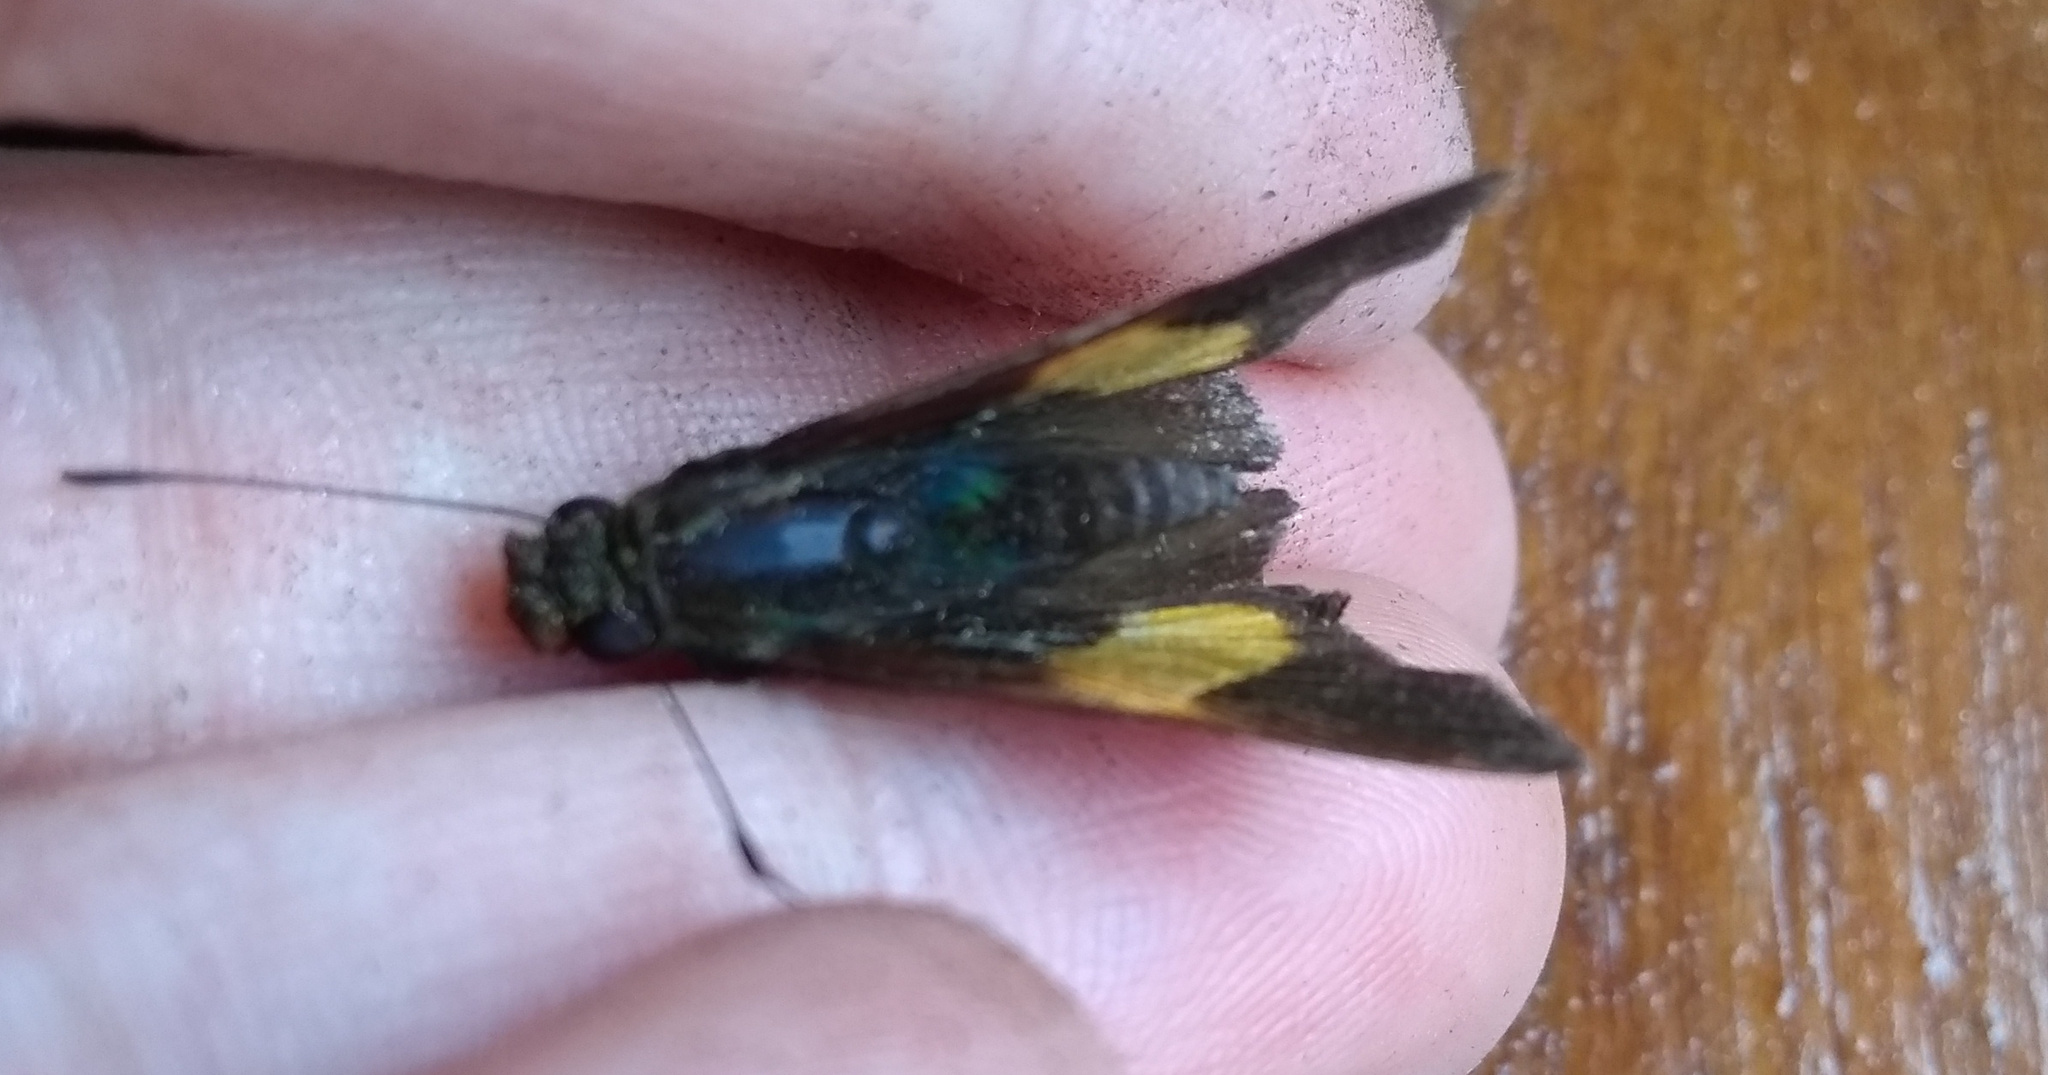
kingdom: Animalia
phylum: Arthropoda
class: Insecta
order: Lepidoptera
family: Hesperiidae
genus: Lychnuchus
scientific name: Lychnuchus celsus
